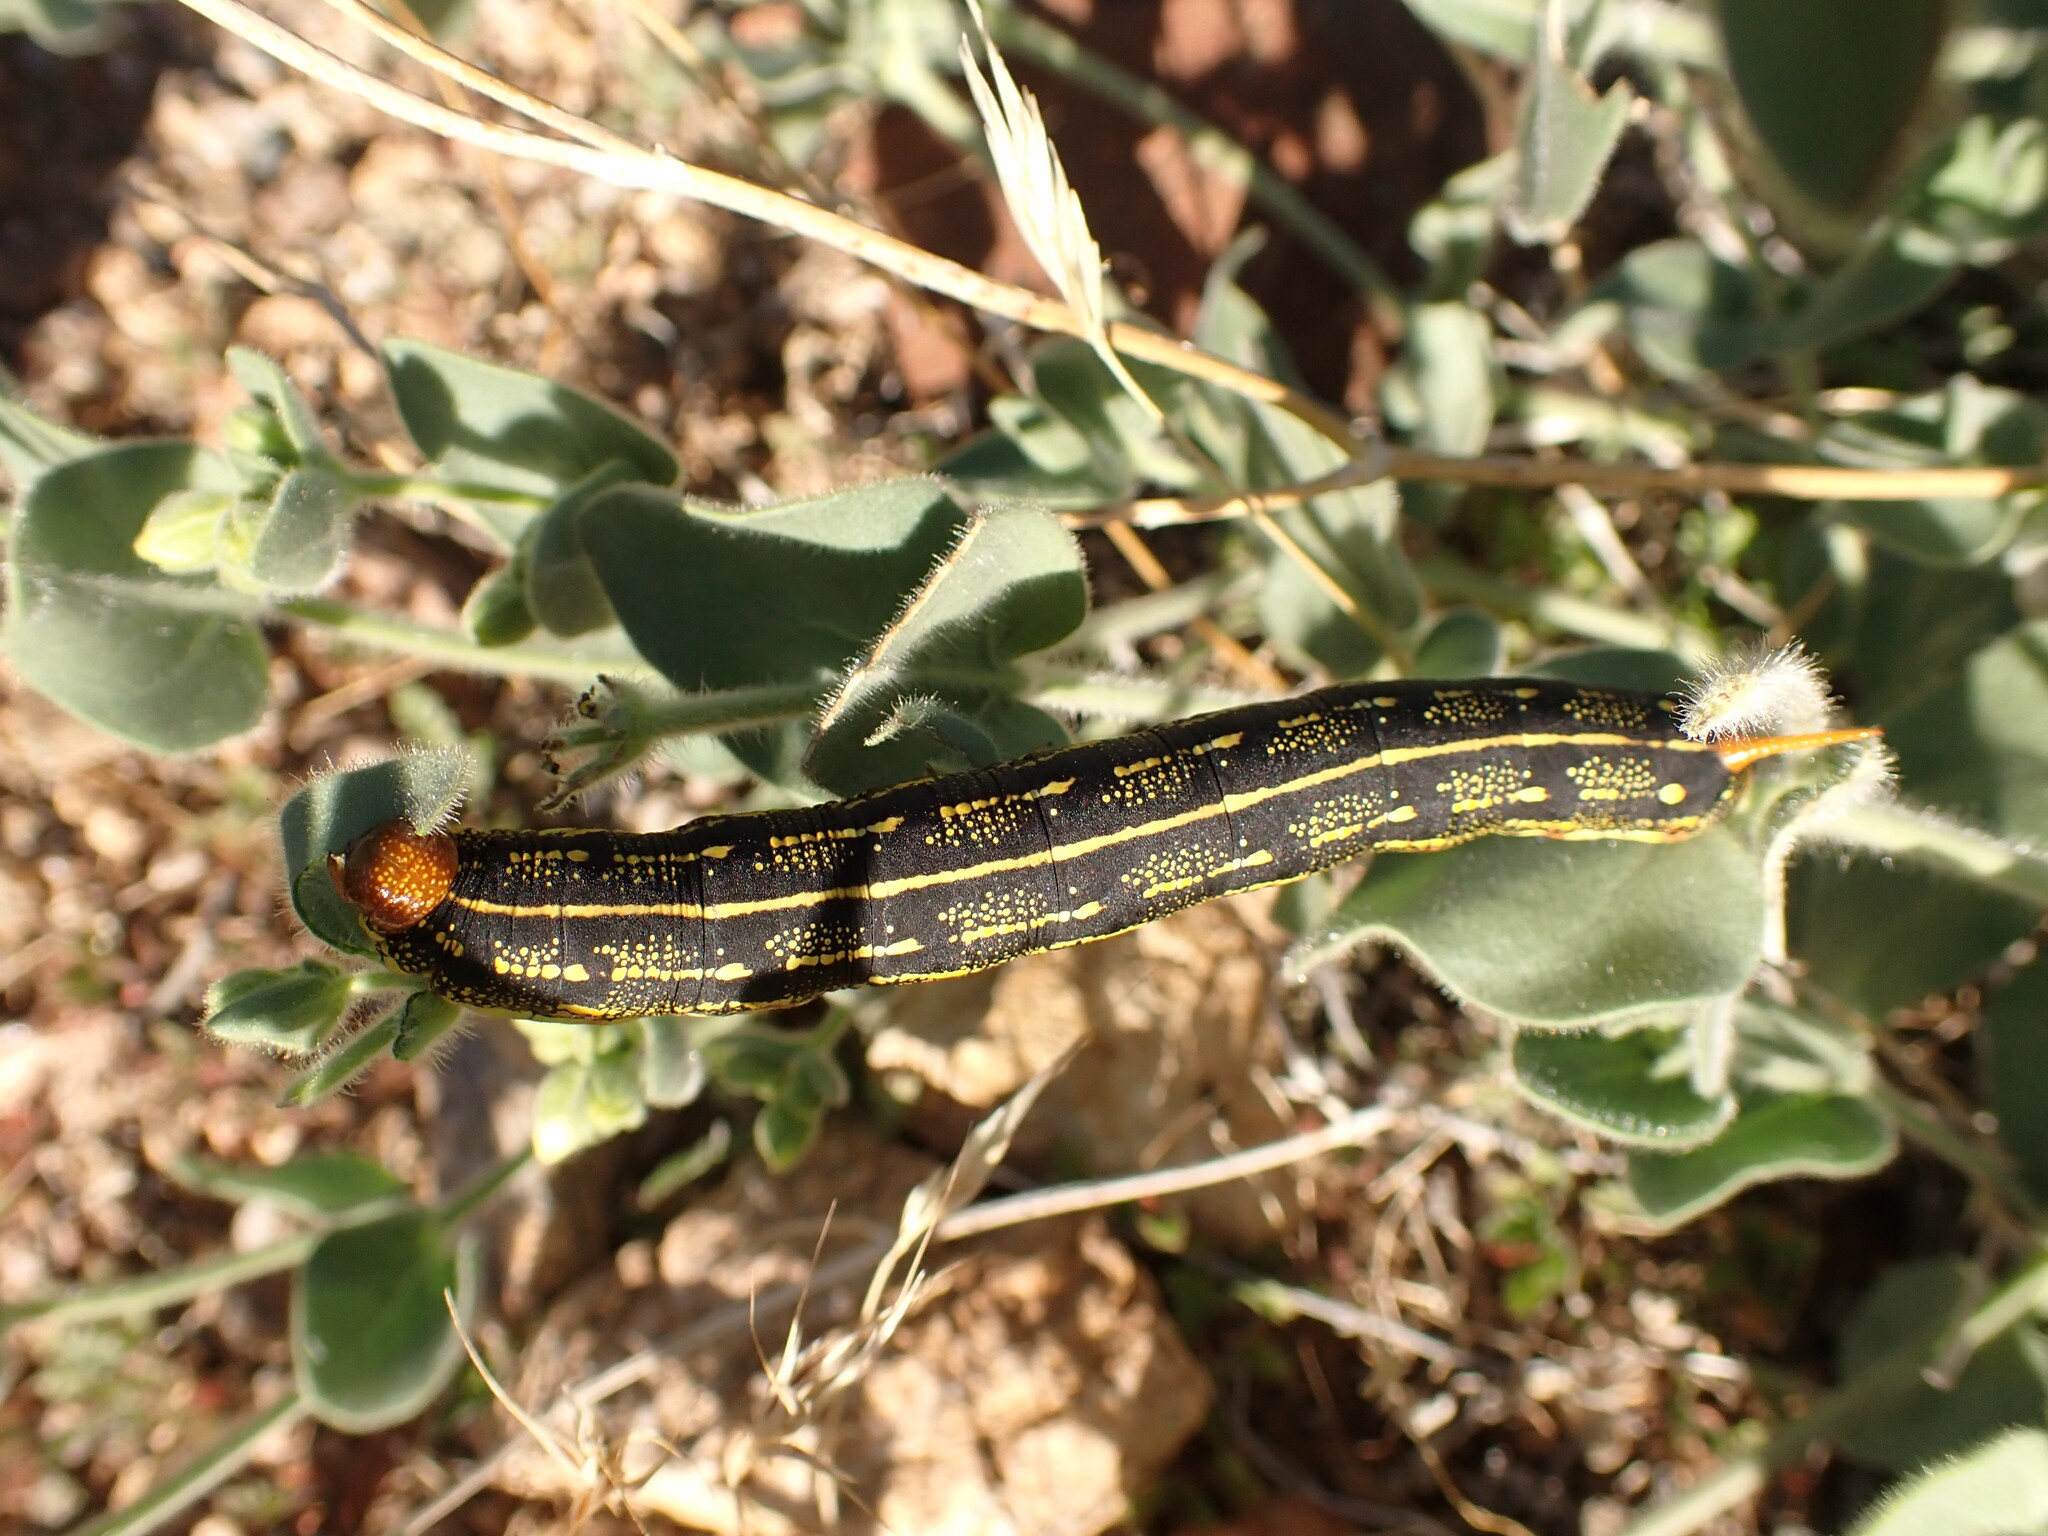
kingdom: Animalia
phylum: Arthropoda
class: Insecta
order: Lepidoptera
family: Sphingidae
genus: Hyles
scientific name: Hyles lineata
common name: White-lined sphinx
